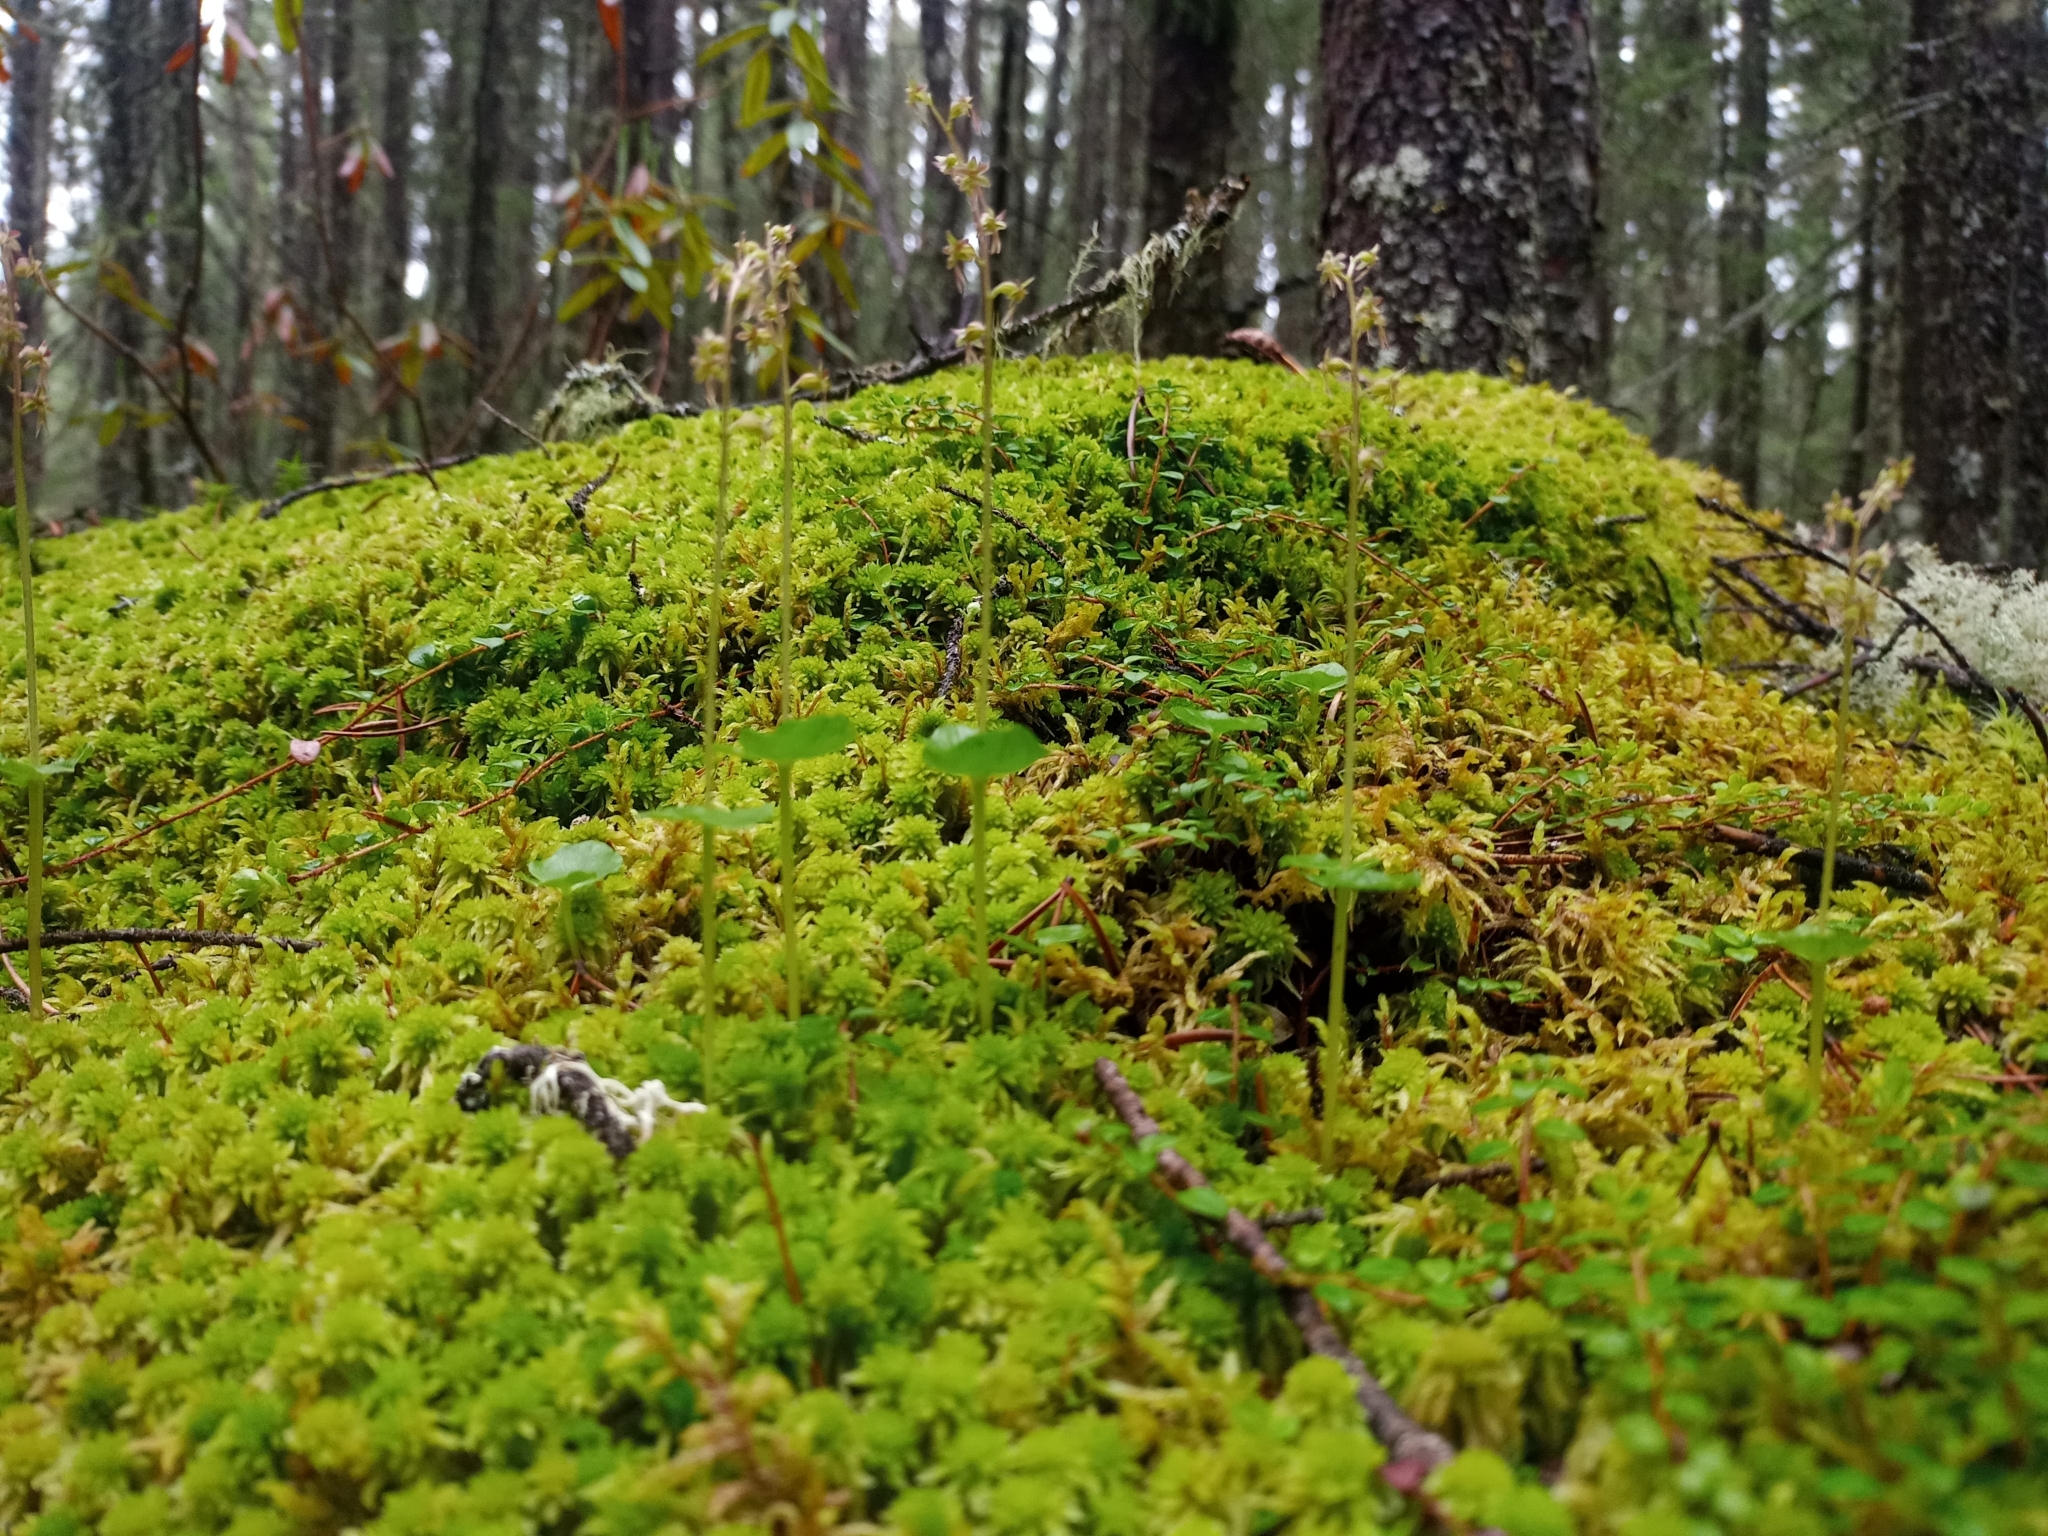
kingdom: Plantae
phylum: Tracheophyta
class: Liliopsida
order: Asparagales
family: Orchidaceae
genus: Neottia
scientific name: Neottia cordata
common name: Lesser twayblade
